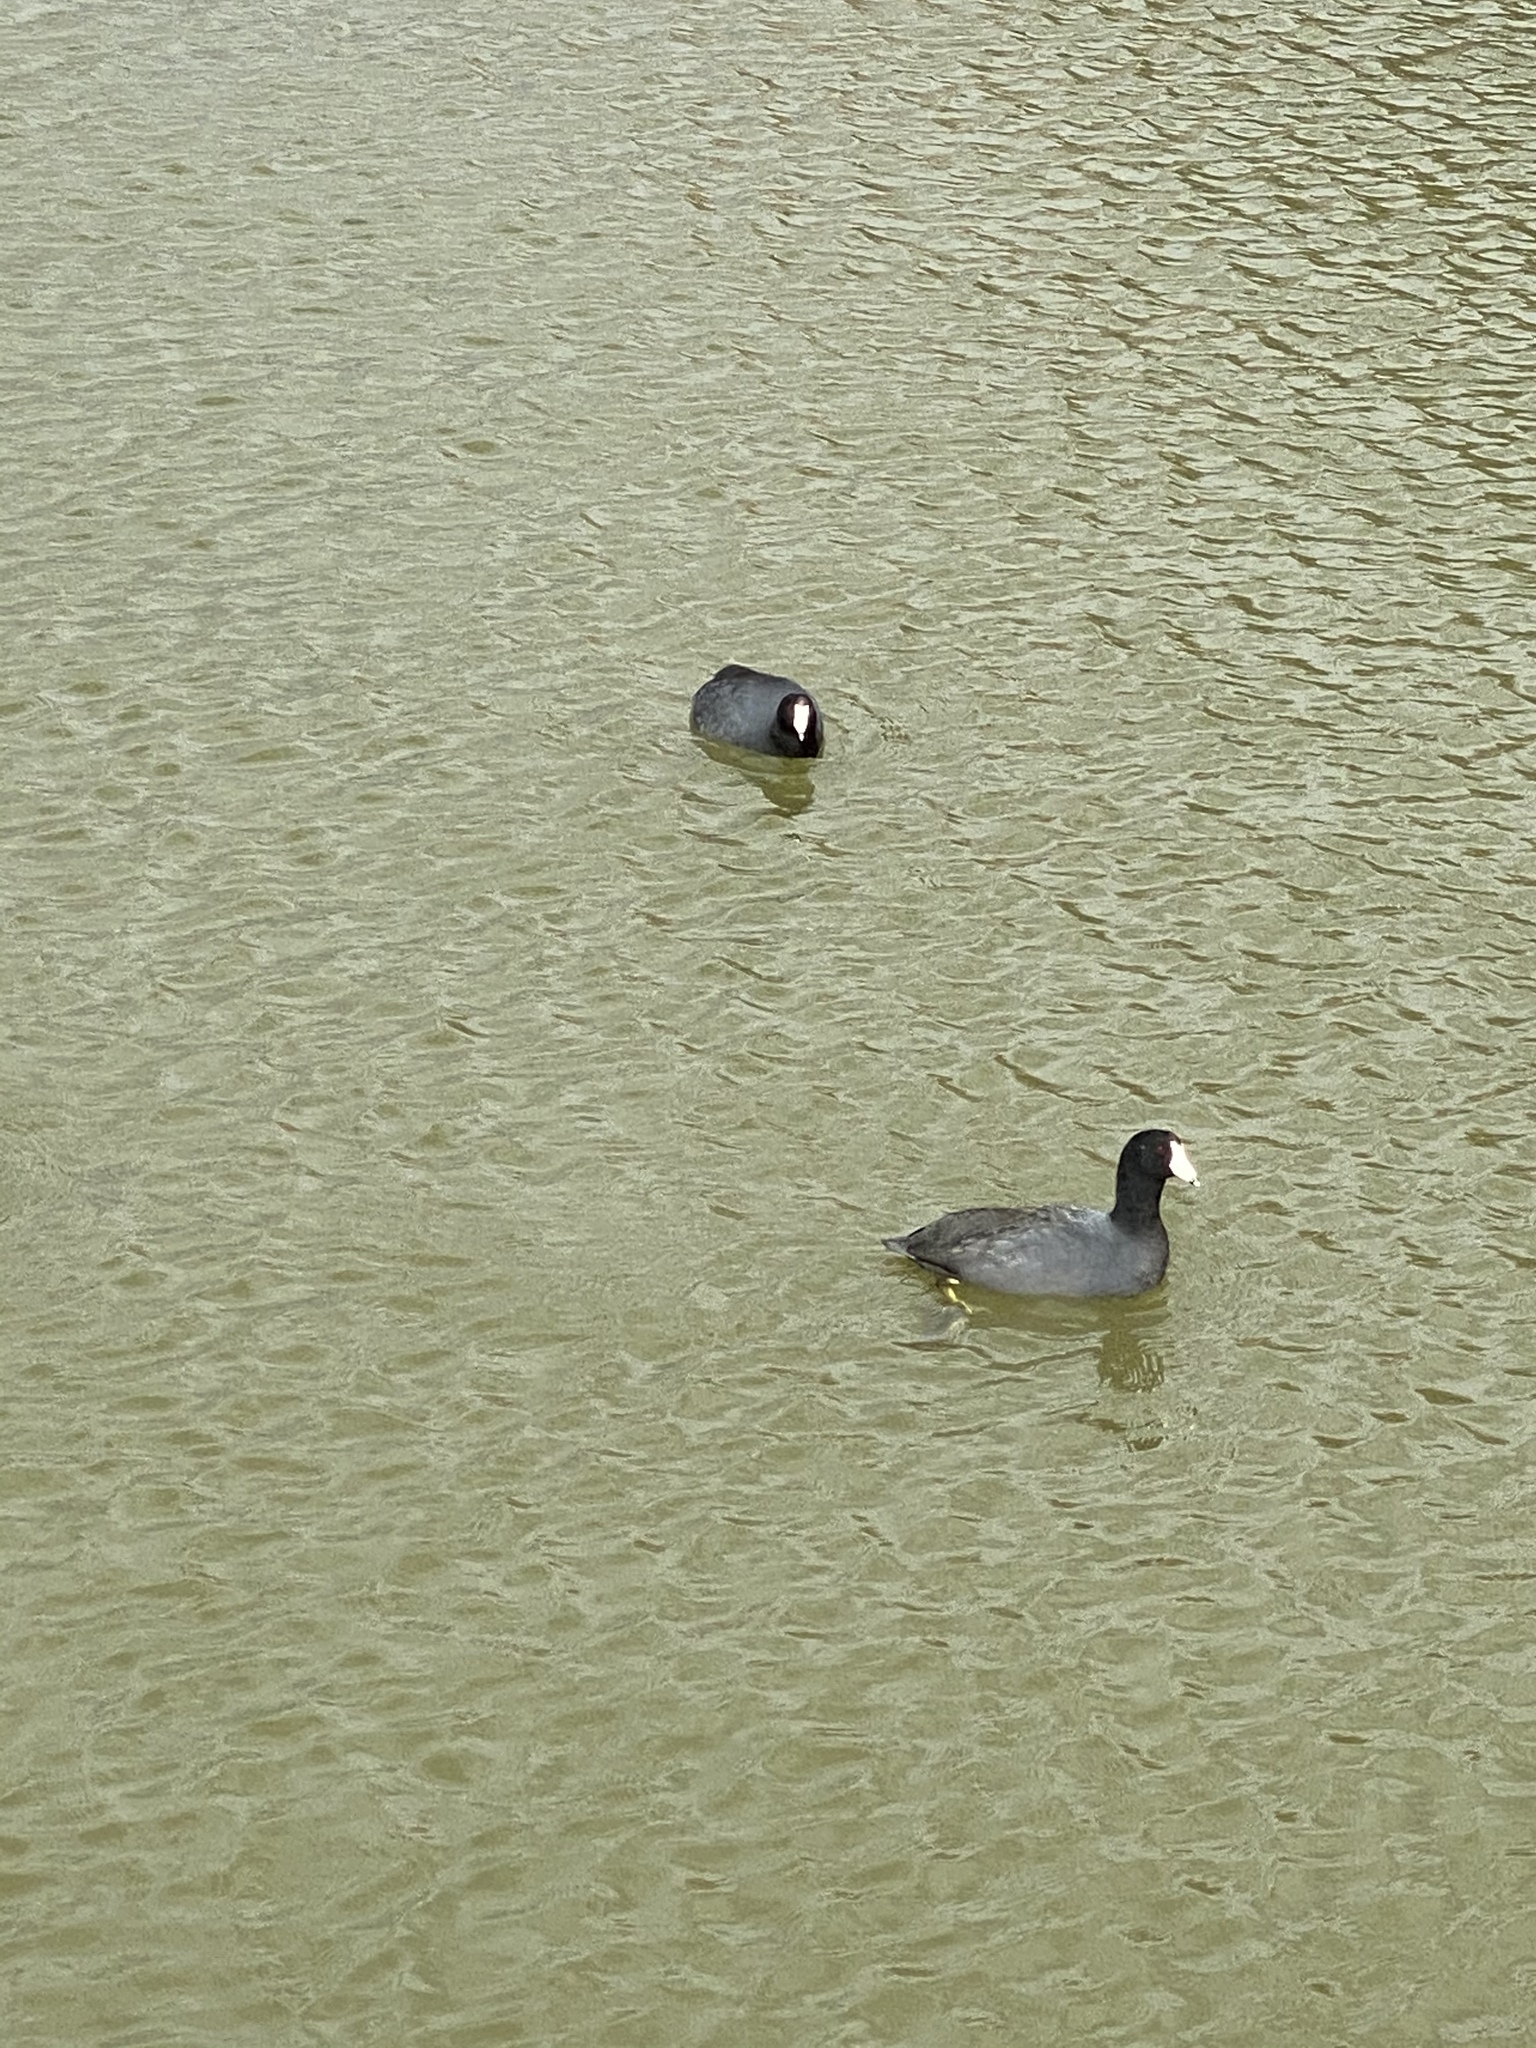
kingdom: Animalia
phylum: Chordata
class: Aves
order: Gruiformes
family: Rallidae
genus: Fulica
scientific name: Fulica americana
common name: American coot
